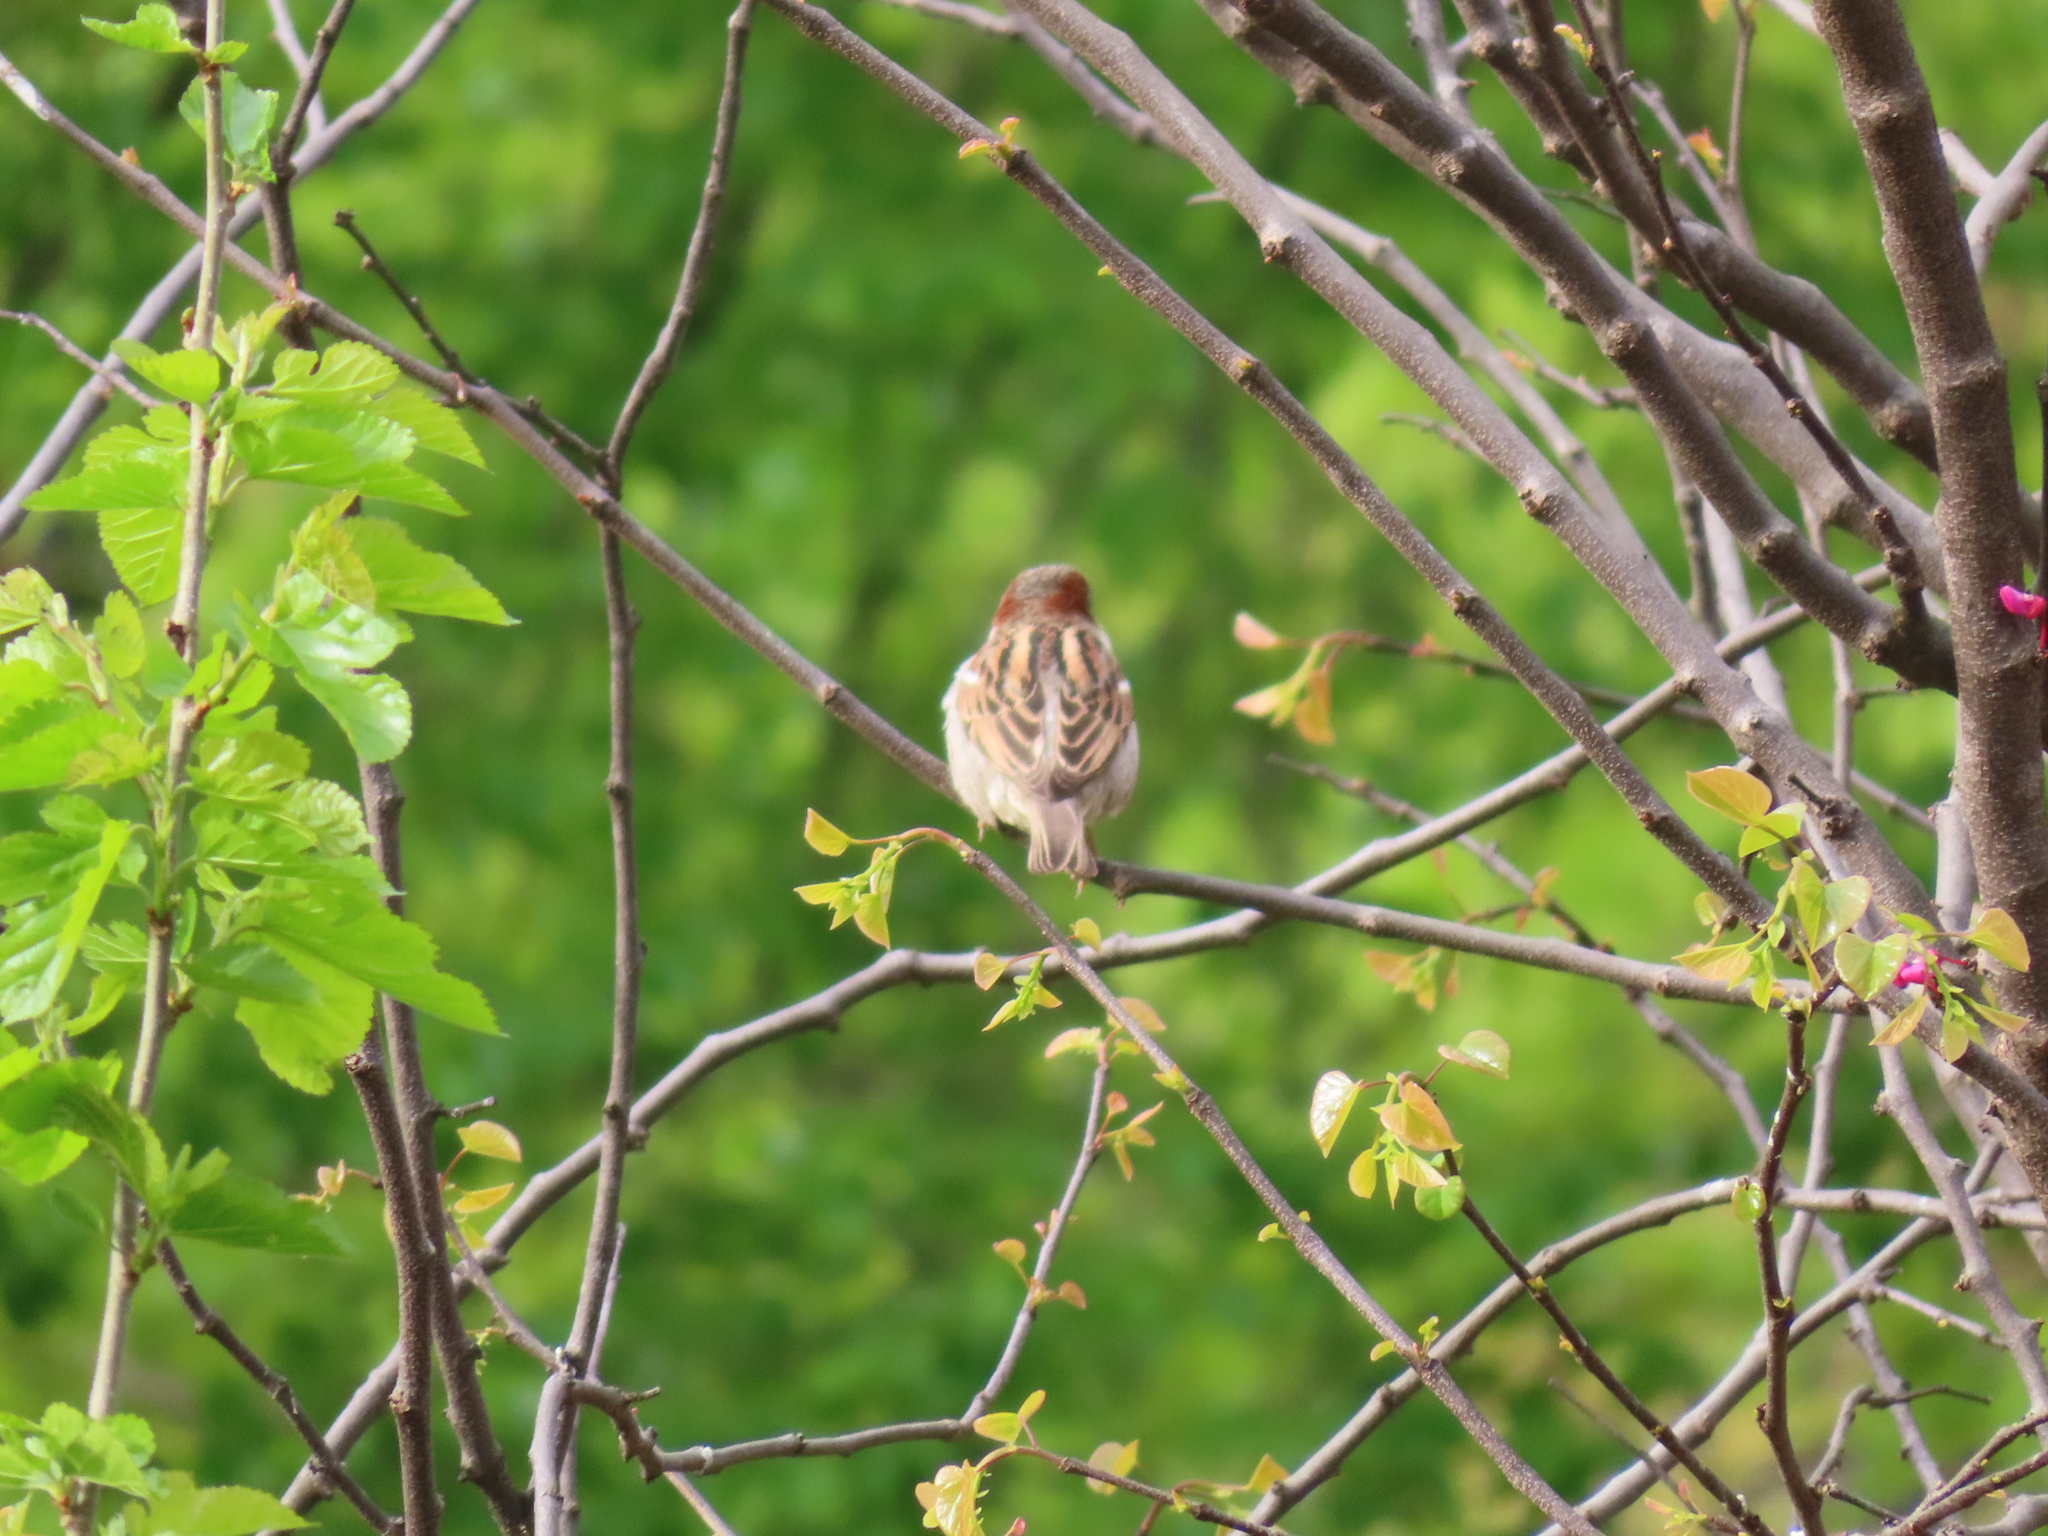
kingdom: Animalia
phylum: Chordata
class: Aves
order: Passeriformes
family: Passeridae
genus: Passer
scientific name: Passer domesticus
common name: House sparrow
